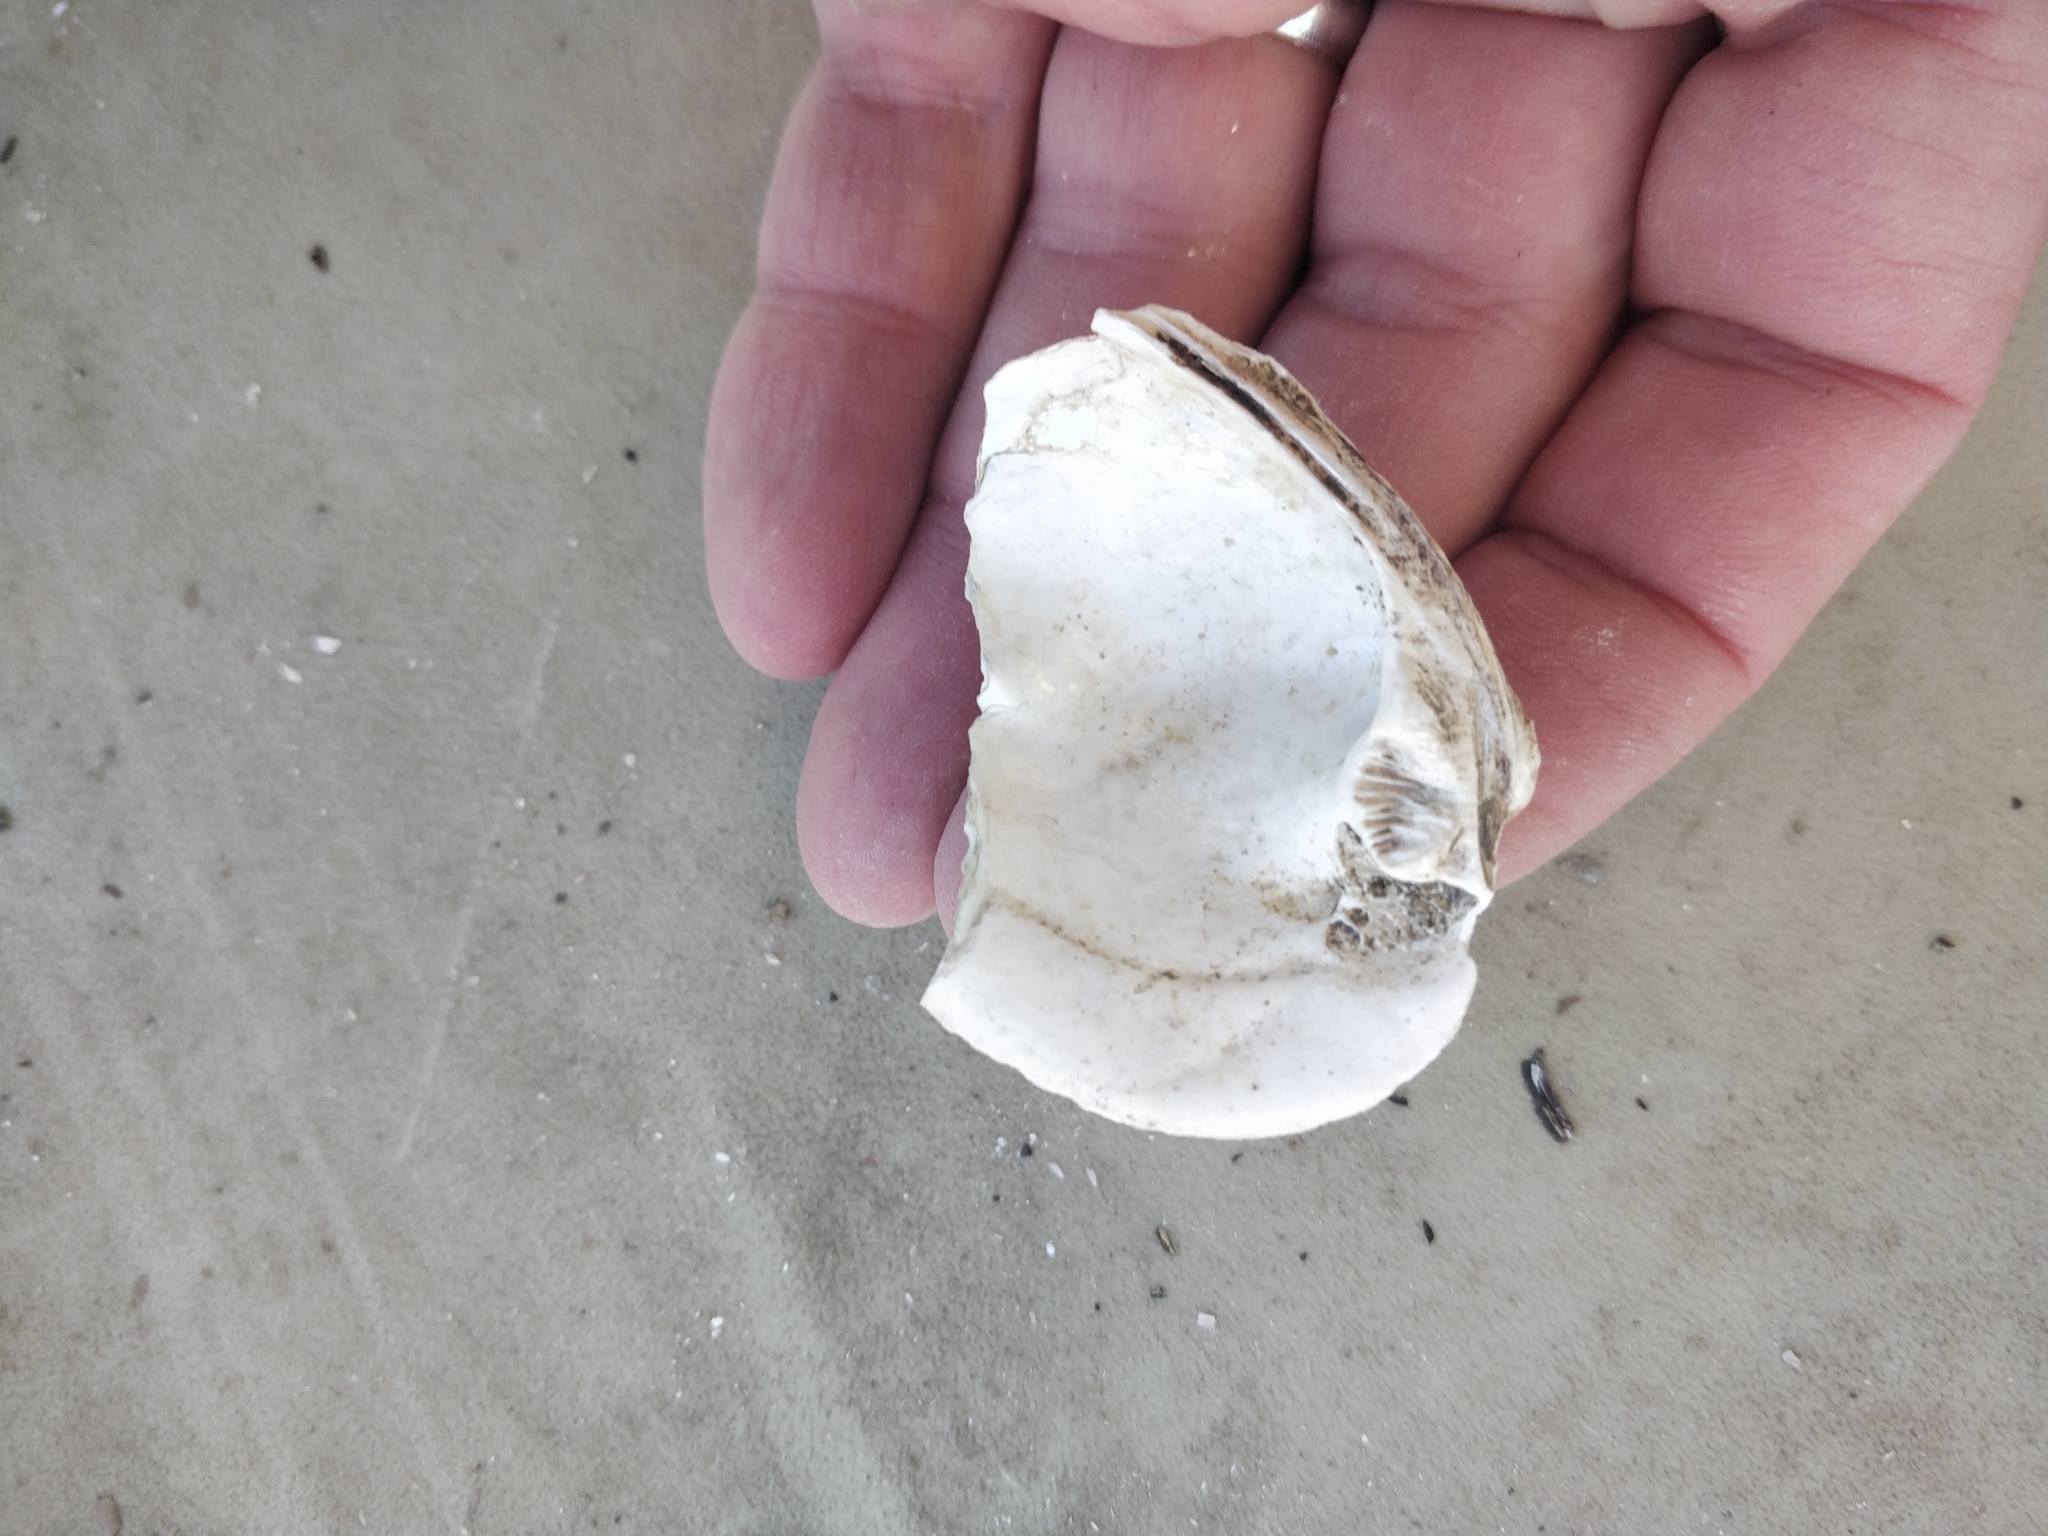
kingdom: Animalia
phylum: Mollusca
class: Bivalvia
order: Unionida
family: Unionidae
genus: Amblema
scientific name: Amblema plicata
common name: Threeridge
